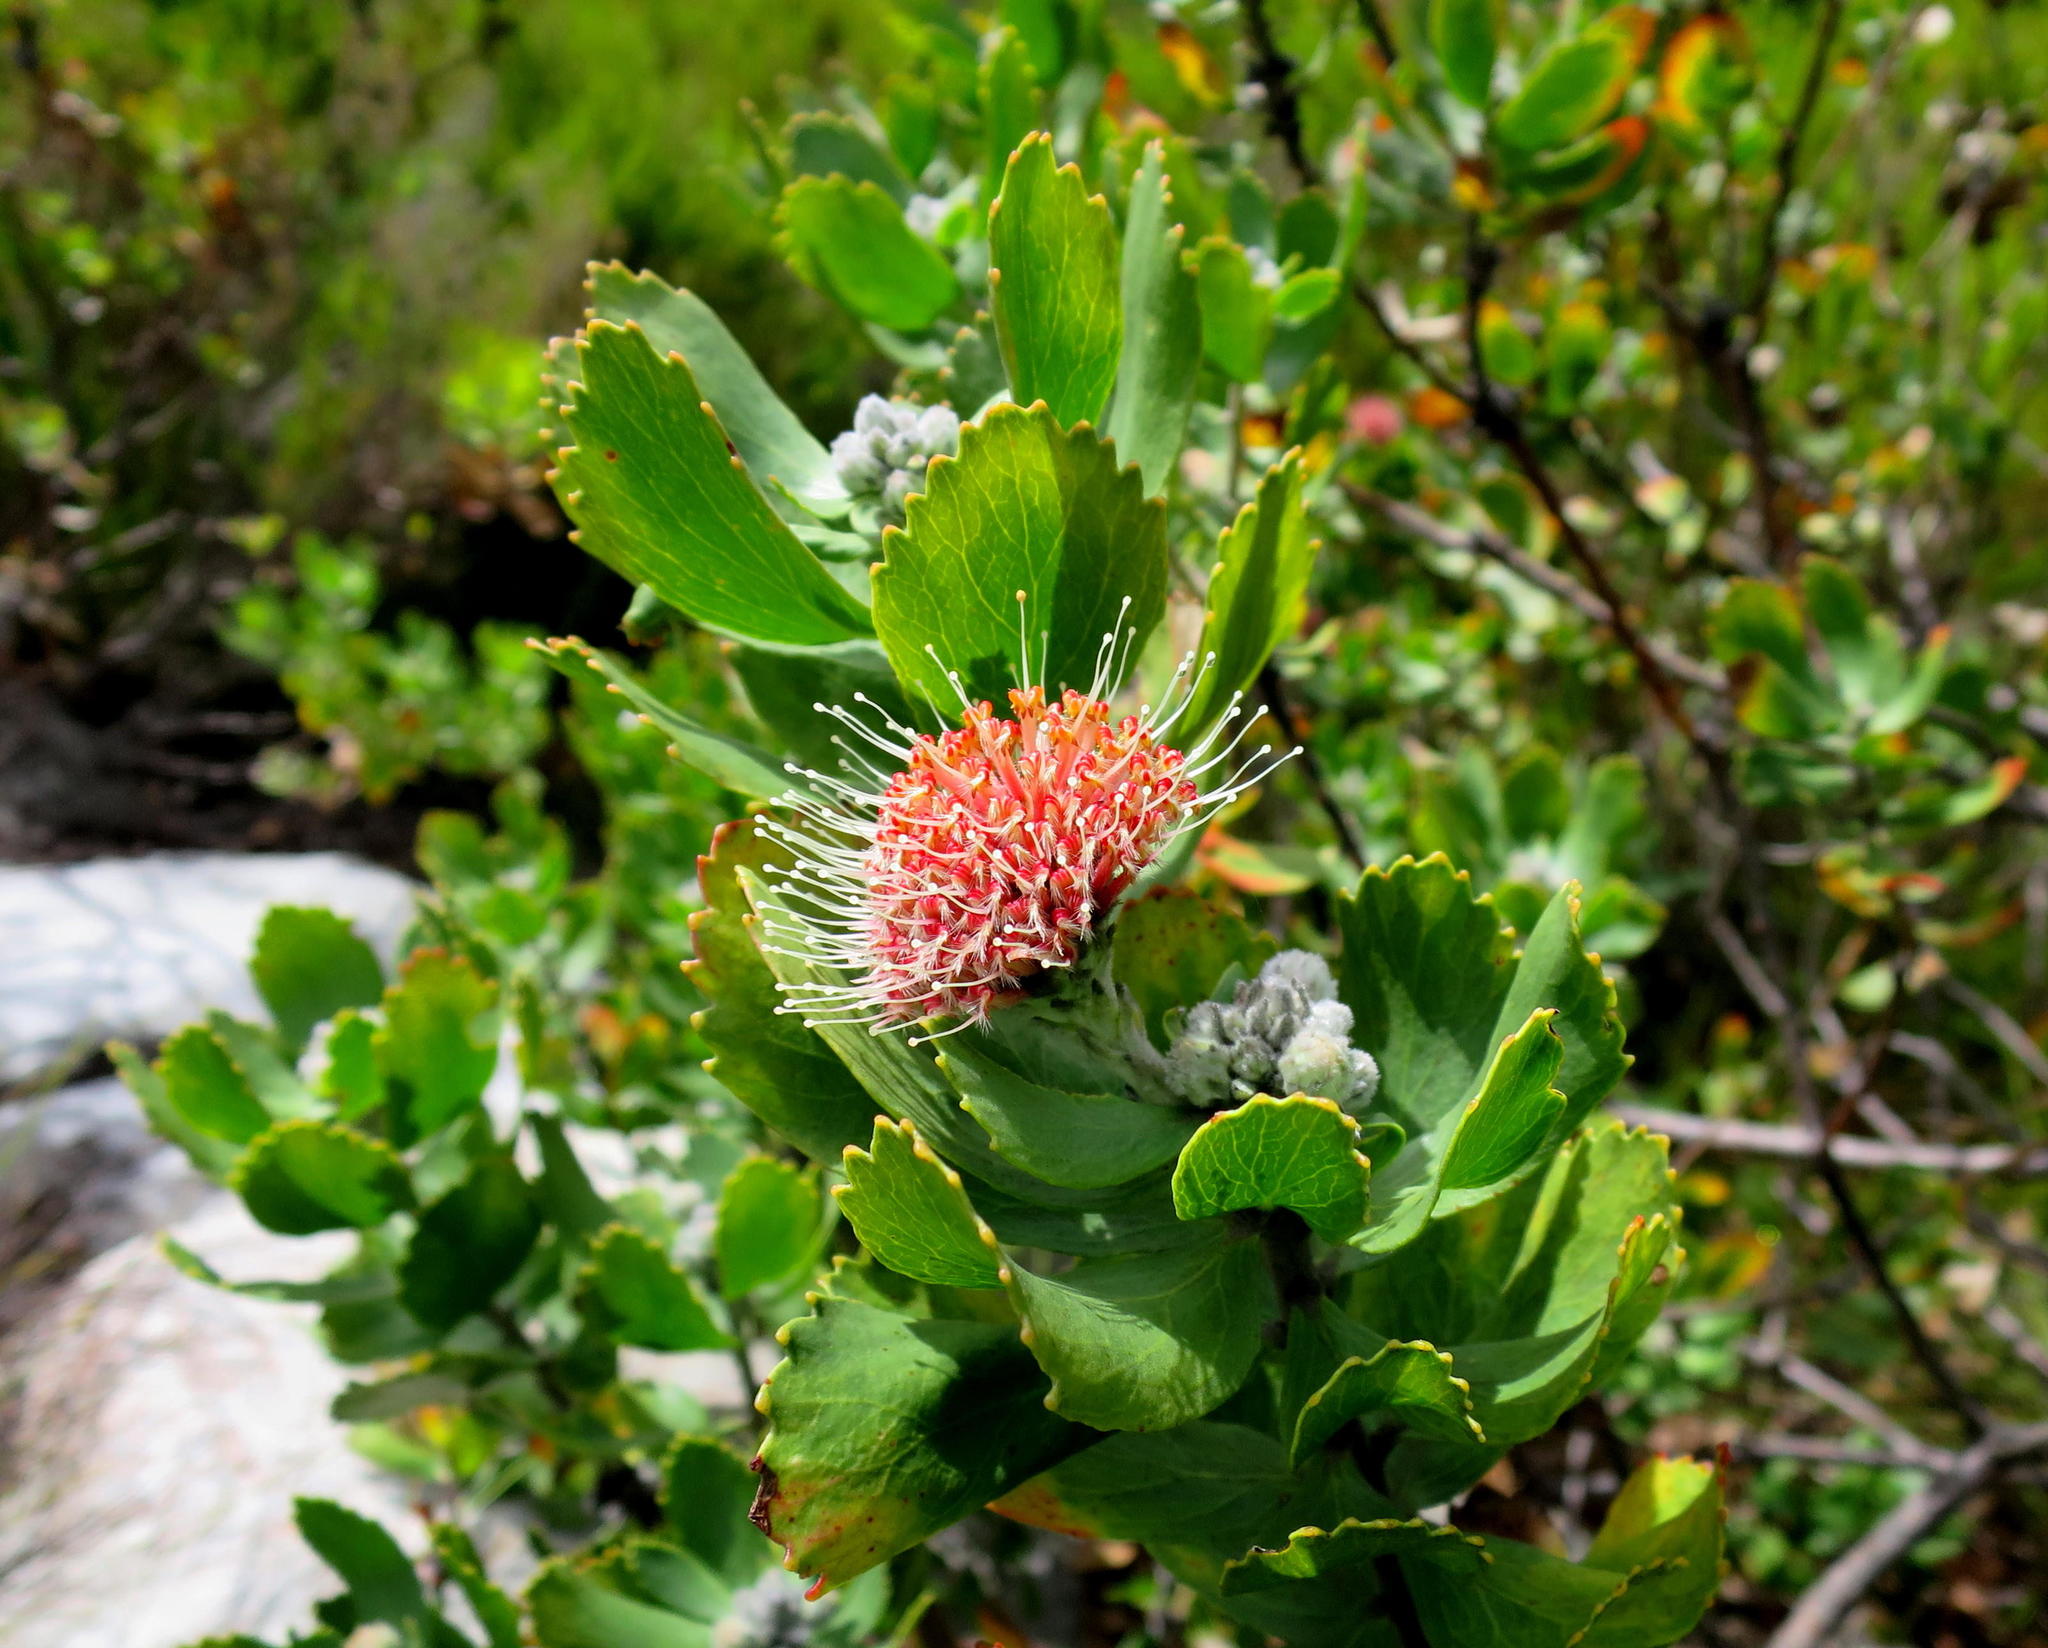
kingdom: Plantae
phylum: Tracheophyta
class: Magnoliopsida
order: Proteales
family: Proteaceae
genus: Leucospermum
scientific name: Leucospermum winteri
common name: Riversdale pincushion
